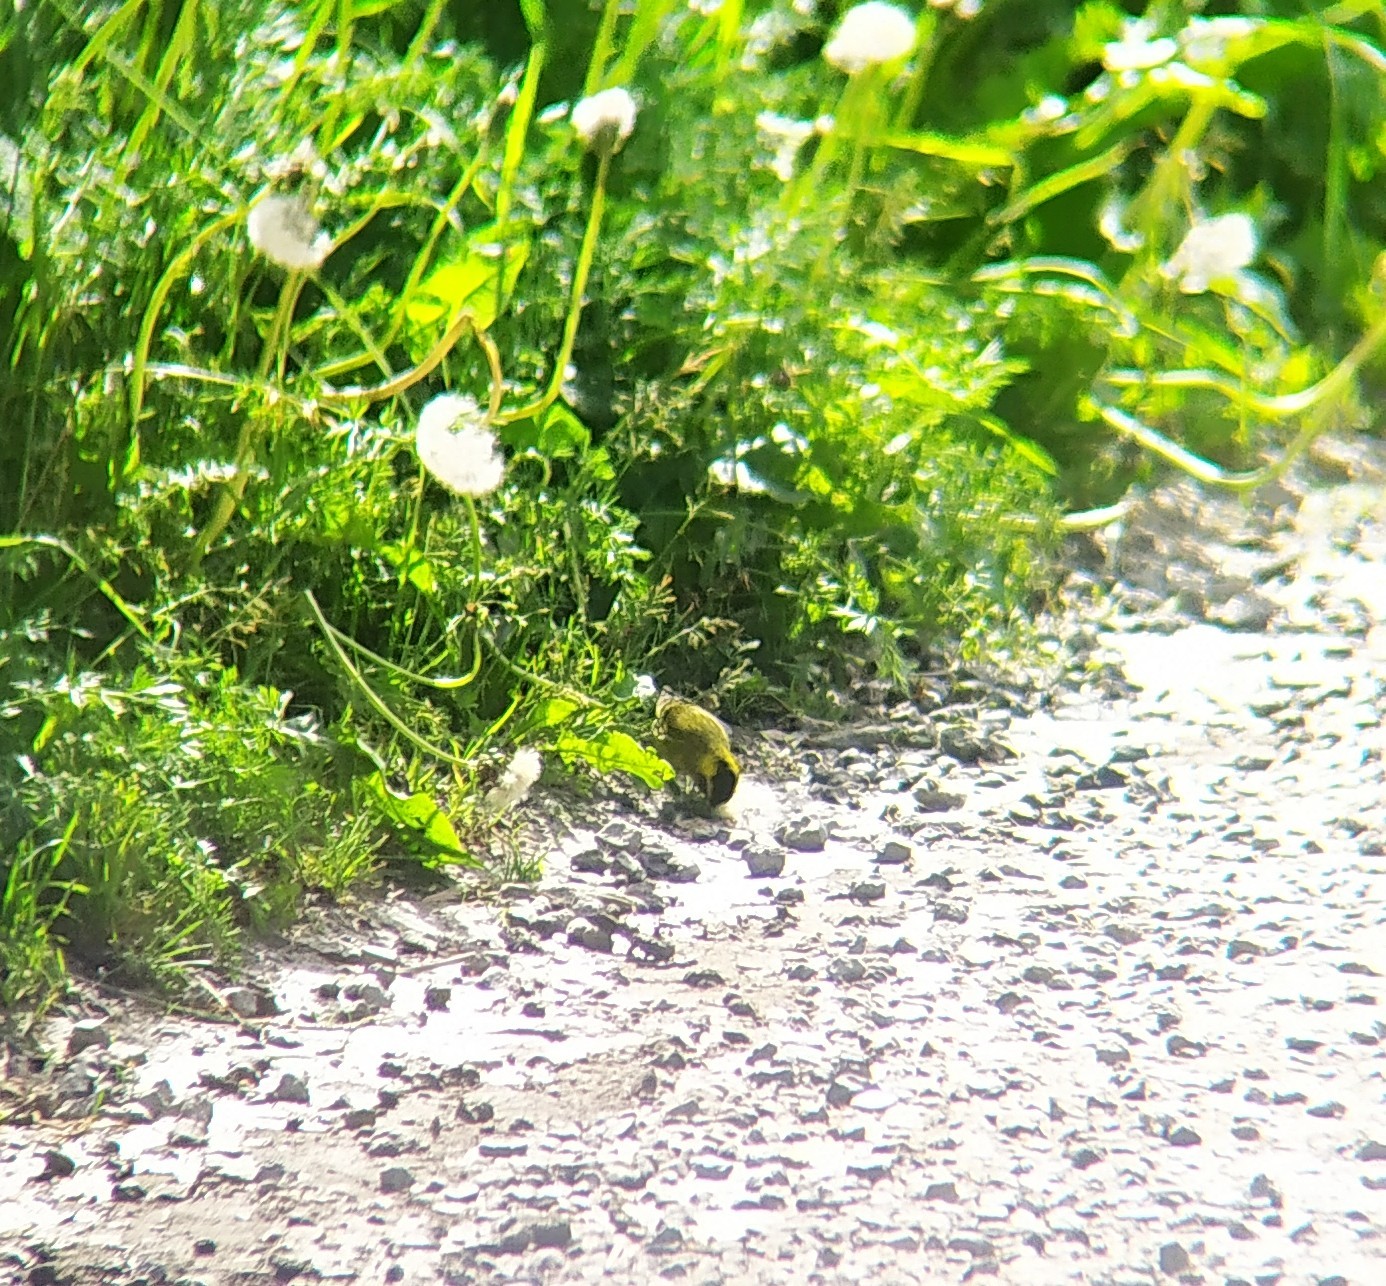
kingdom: Animalia
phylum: Chordata
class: Aves
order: Passeriformes
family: Fringillidae
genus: Spinus
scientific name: Spinus spinus
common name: Eurasian siskin
